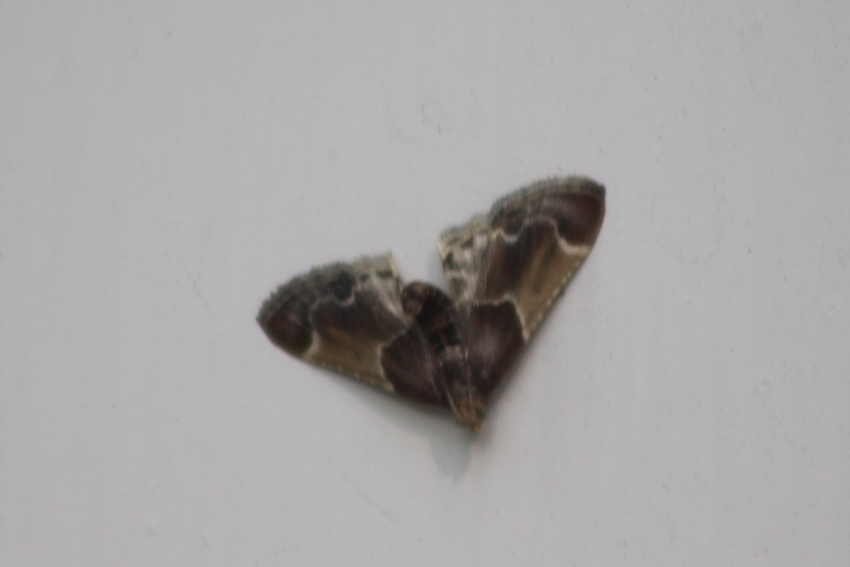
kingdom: Animalia
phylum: Arthropoda
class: Insecta
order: Lepidoptera
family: Pyralidae
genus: Pyralis
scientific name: Pyralis farinalis
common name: Meal moth
